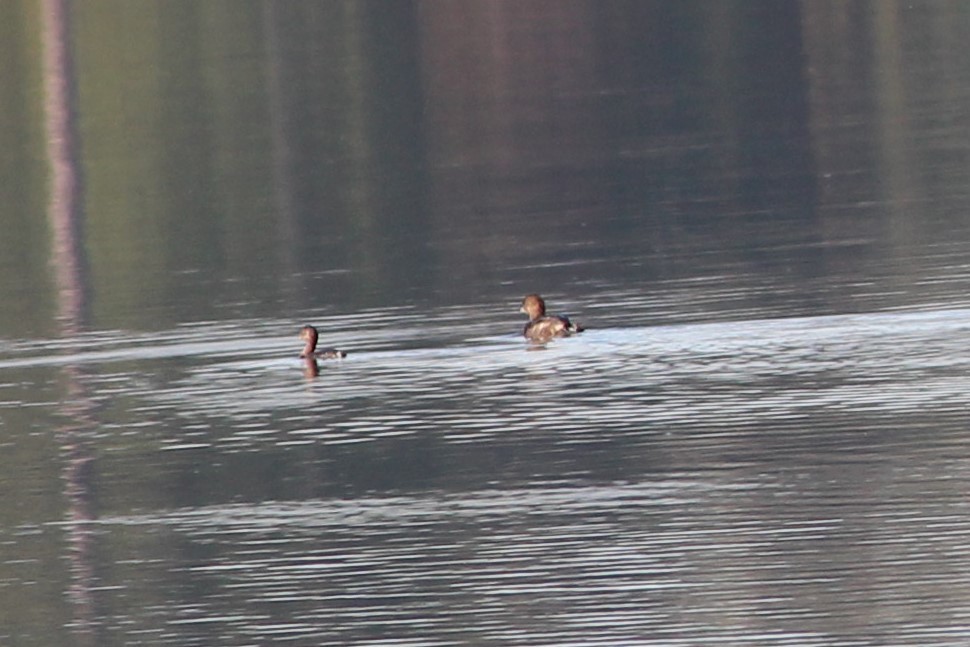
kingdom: Animalia
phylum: Chordata
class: Aves
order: Podicipediformes
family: Podicipedidae
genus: Podilymbus
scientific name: Podilymbus podiceps
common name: Pied-billed grebe
